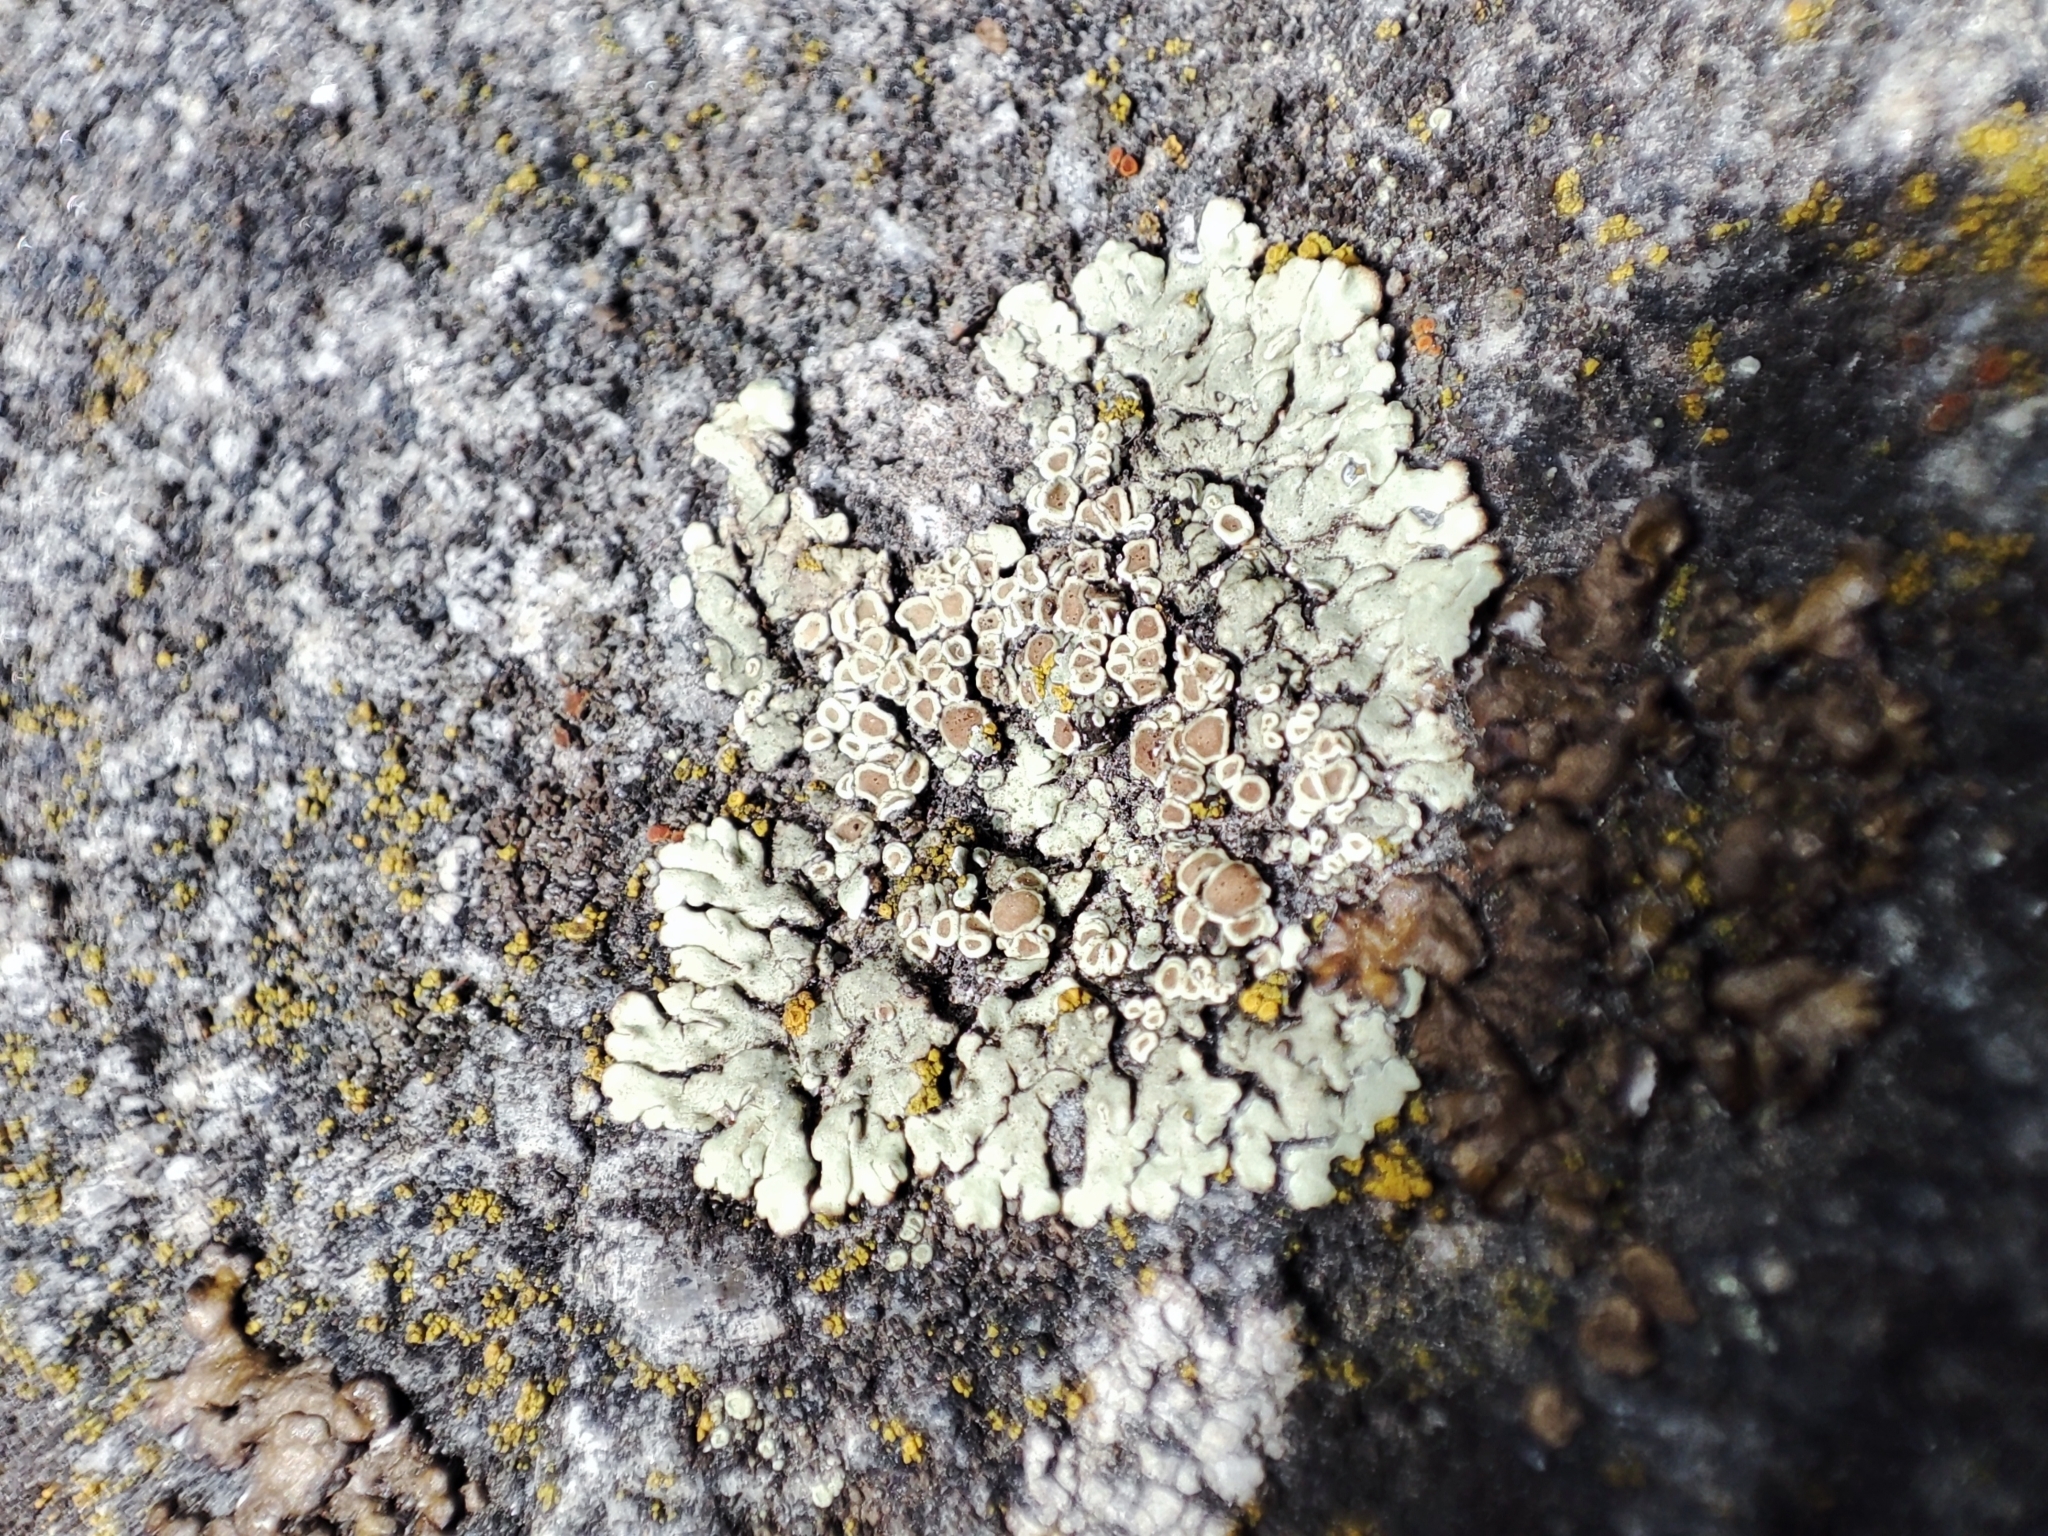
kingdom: Fungi
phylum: Ascomycota
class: Lecanoromycetes
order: Lecanorales
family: Lecanoraceae
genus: Protoparmeliopsis
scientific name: Protoparmeliopsis muralis
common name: Stonewall rim lichen
